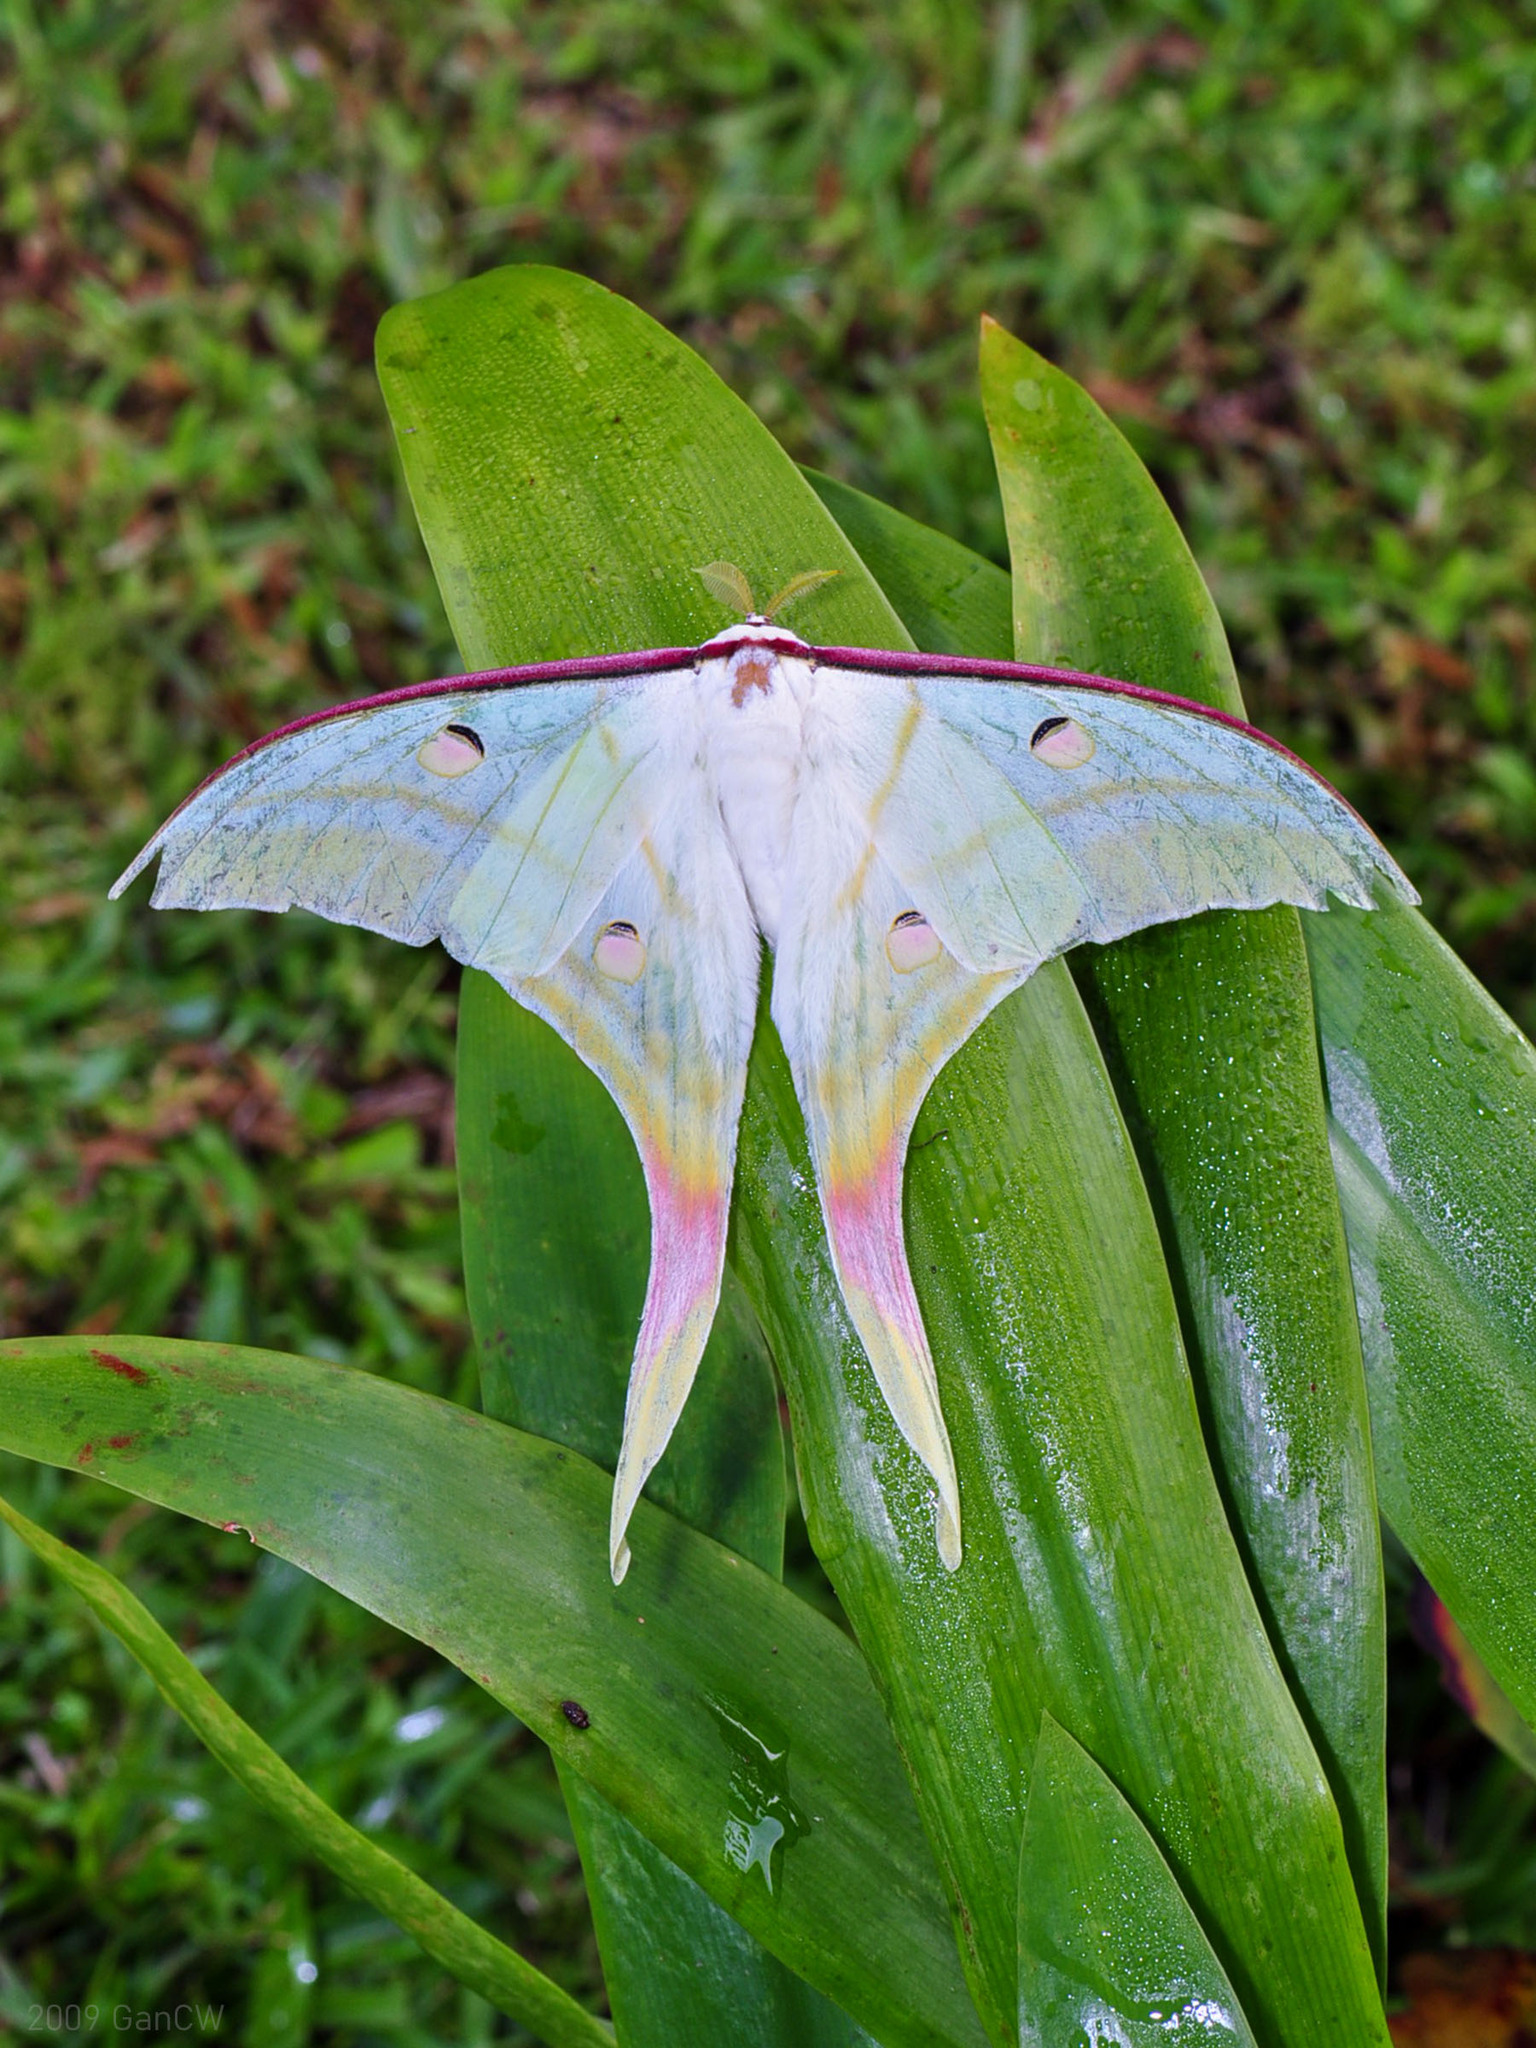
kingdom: Animalia
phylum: Arthropoda
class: Insecta
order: Lepidoptera
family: Saturniidae
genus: Actias
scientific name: Actias selene
